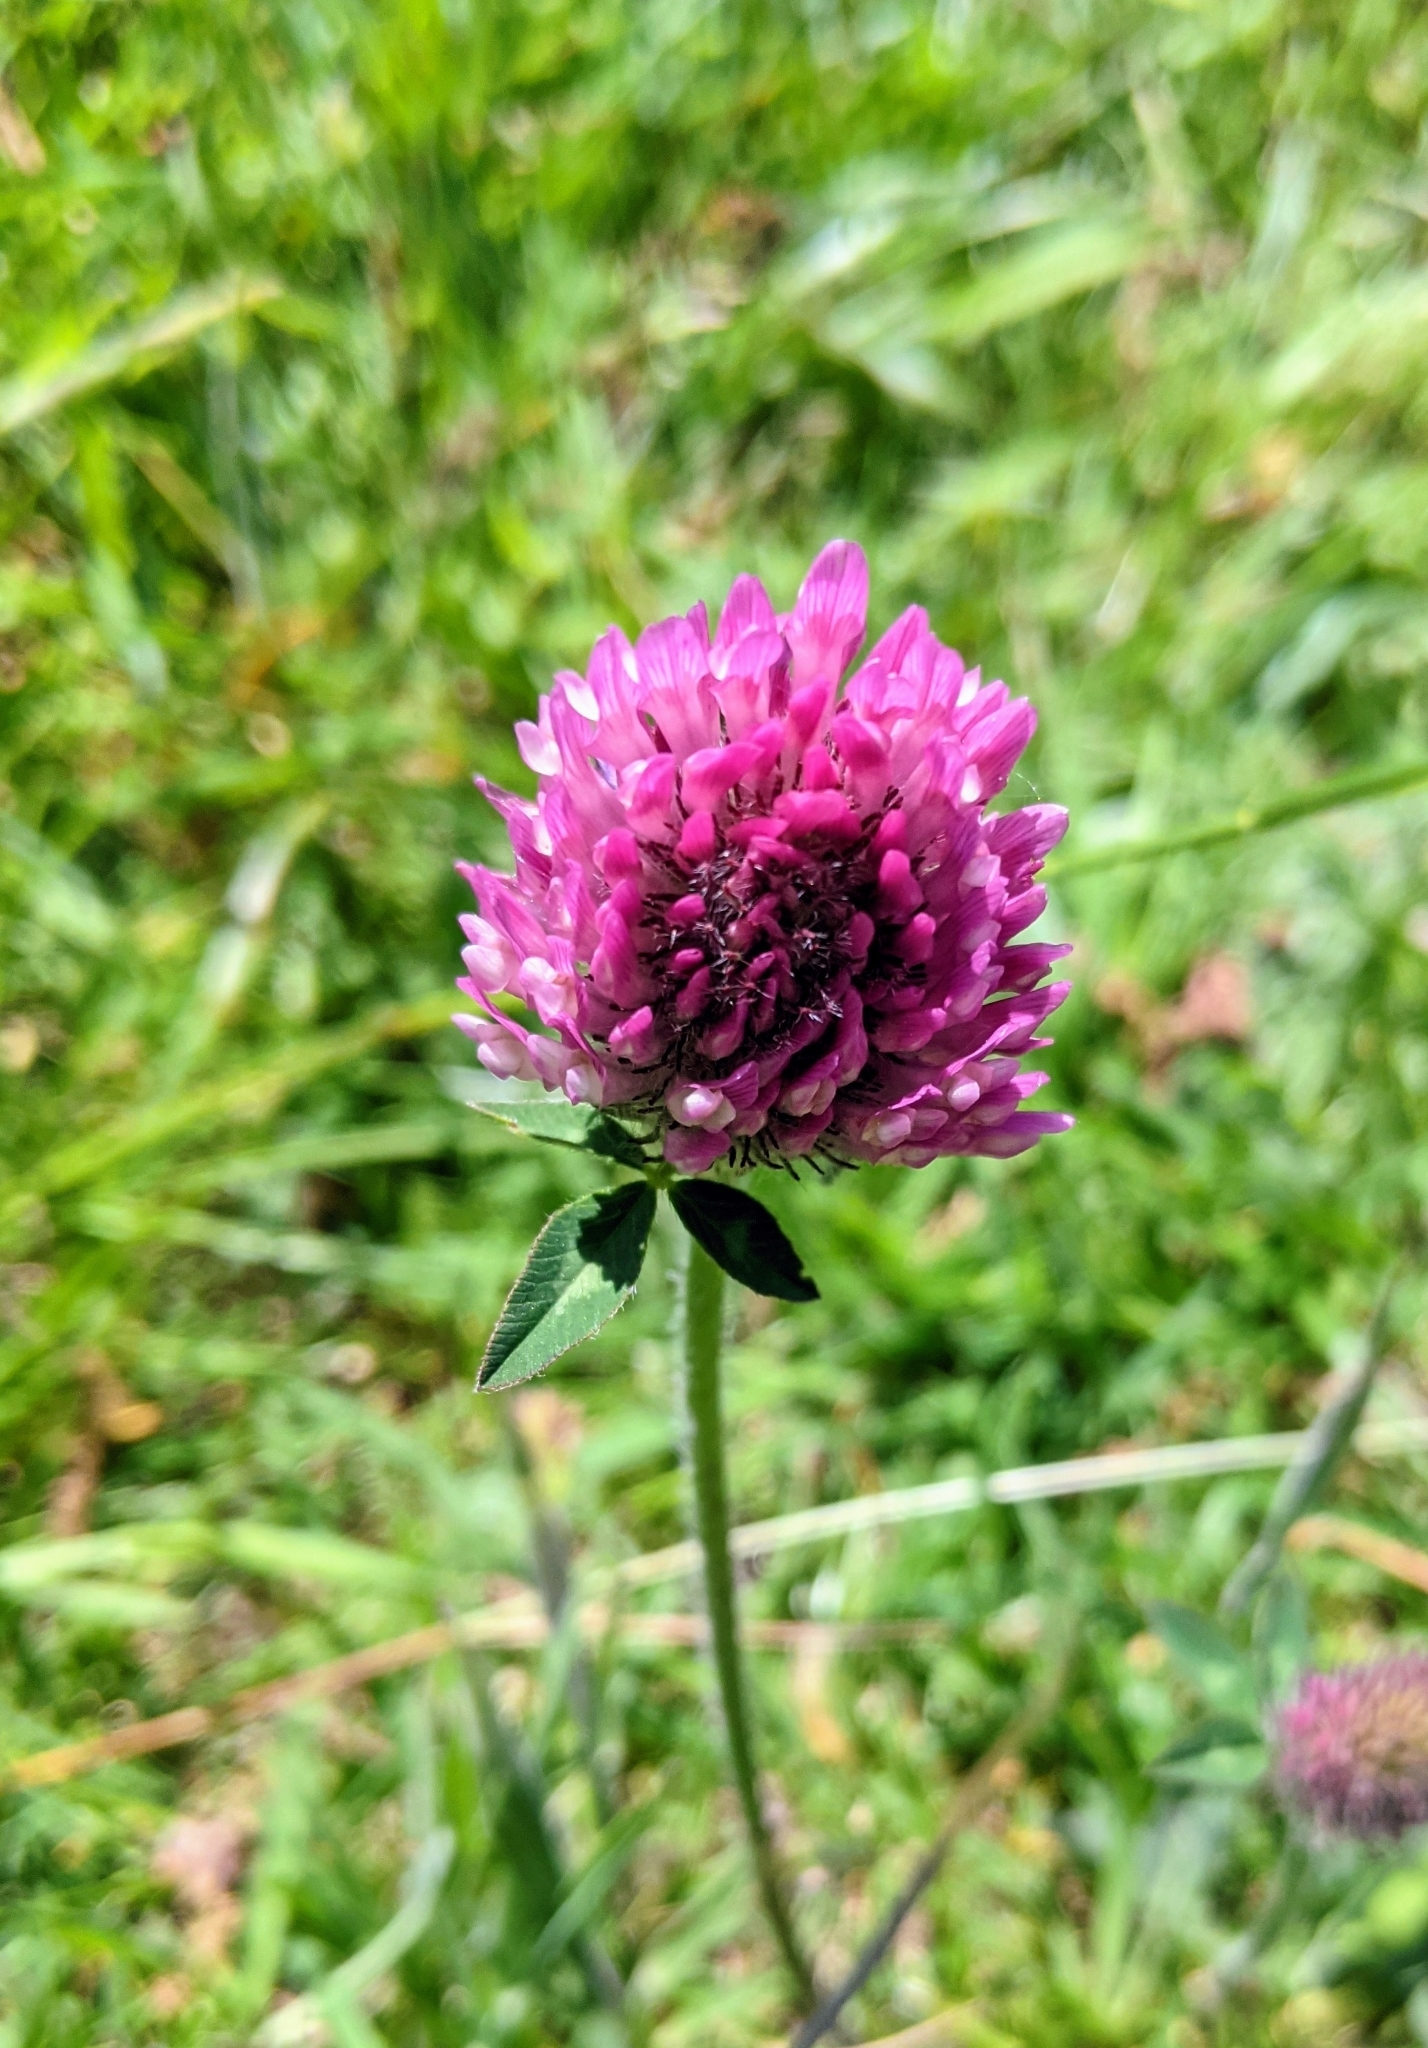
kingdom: Plantae
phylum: Tracheophyta
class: Magnoliopsida
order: Fabales
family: Fabaceae
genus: Trifolium
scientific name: Trifolium pratense
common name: Red clover
